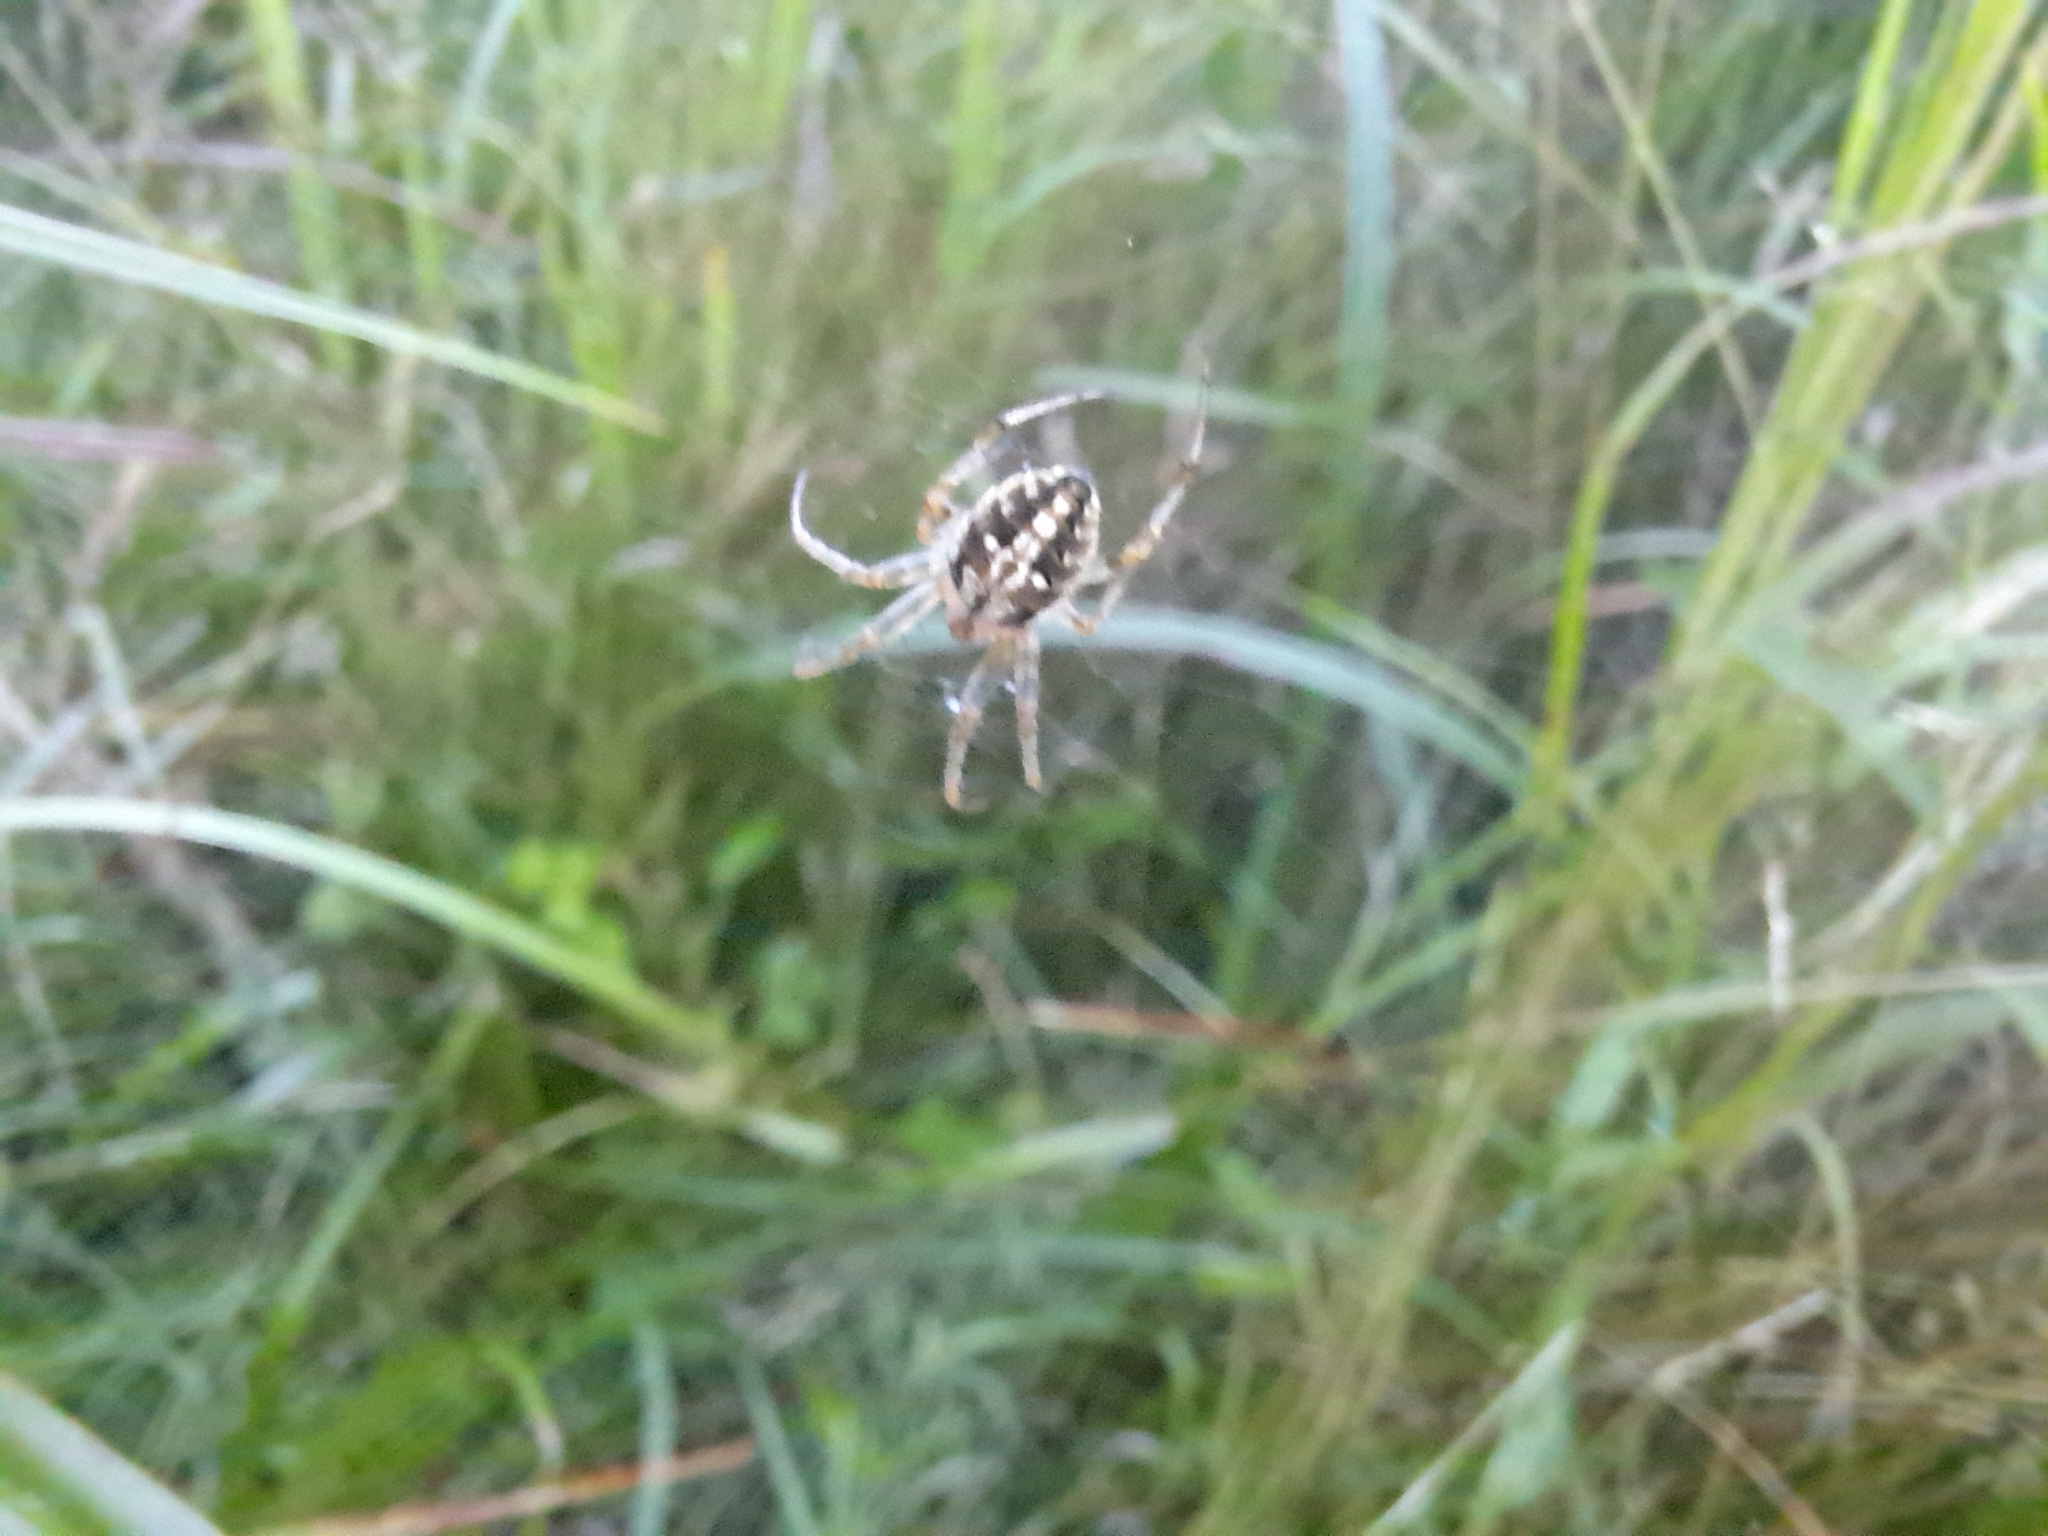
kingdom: Animalia
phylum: Arthropoda
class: Arachnida
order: Araneae
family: Araneidae
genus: Neoscona
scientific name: Neoscona arabesca
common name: Orb weavers
